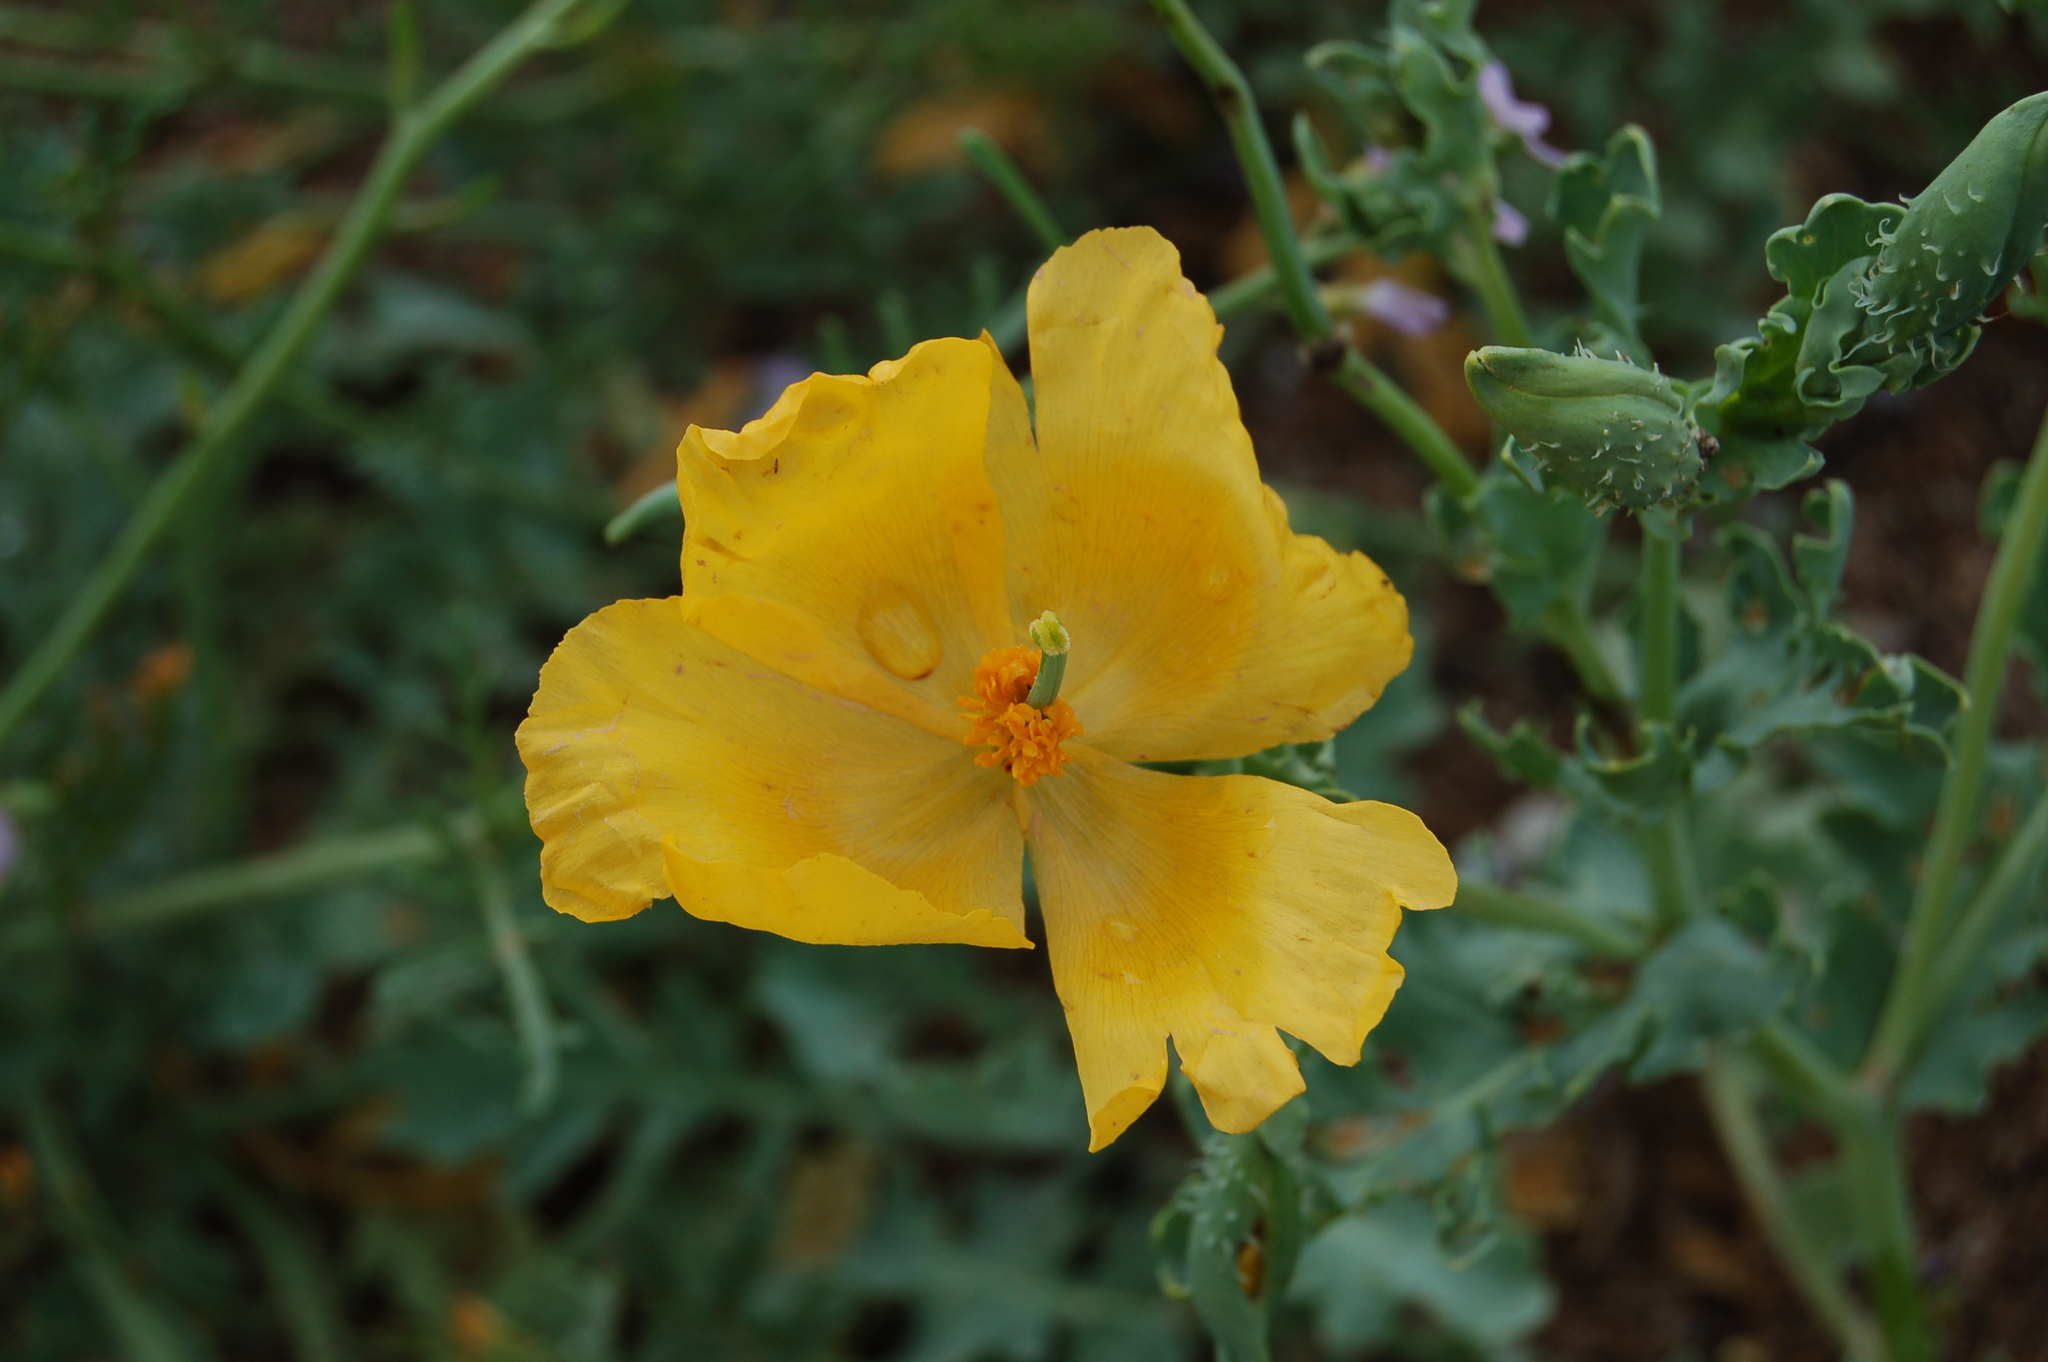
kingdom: Plantae
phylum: Tracheophyta
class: Magnoliopsida
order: Ranunculales
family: Papaveraceae
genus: Glaucium
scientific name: Glaucium flavum
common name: Yellow horned-poppy
